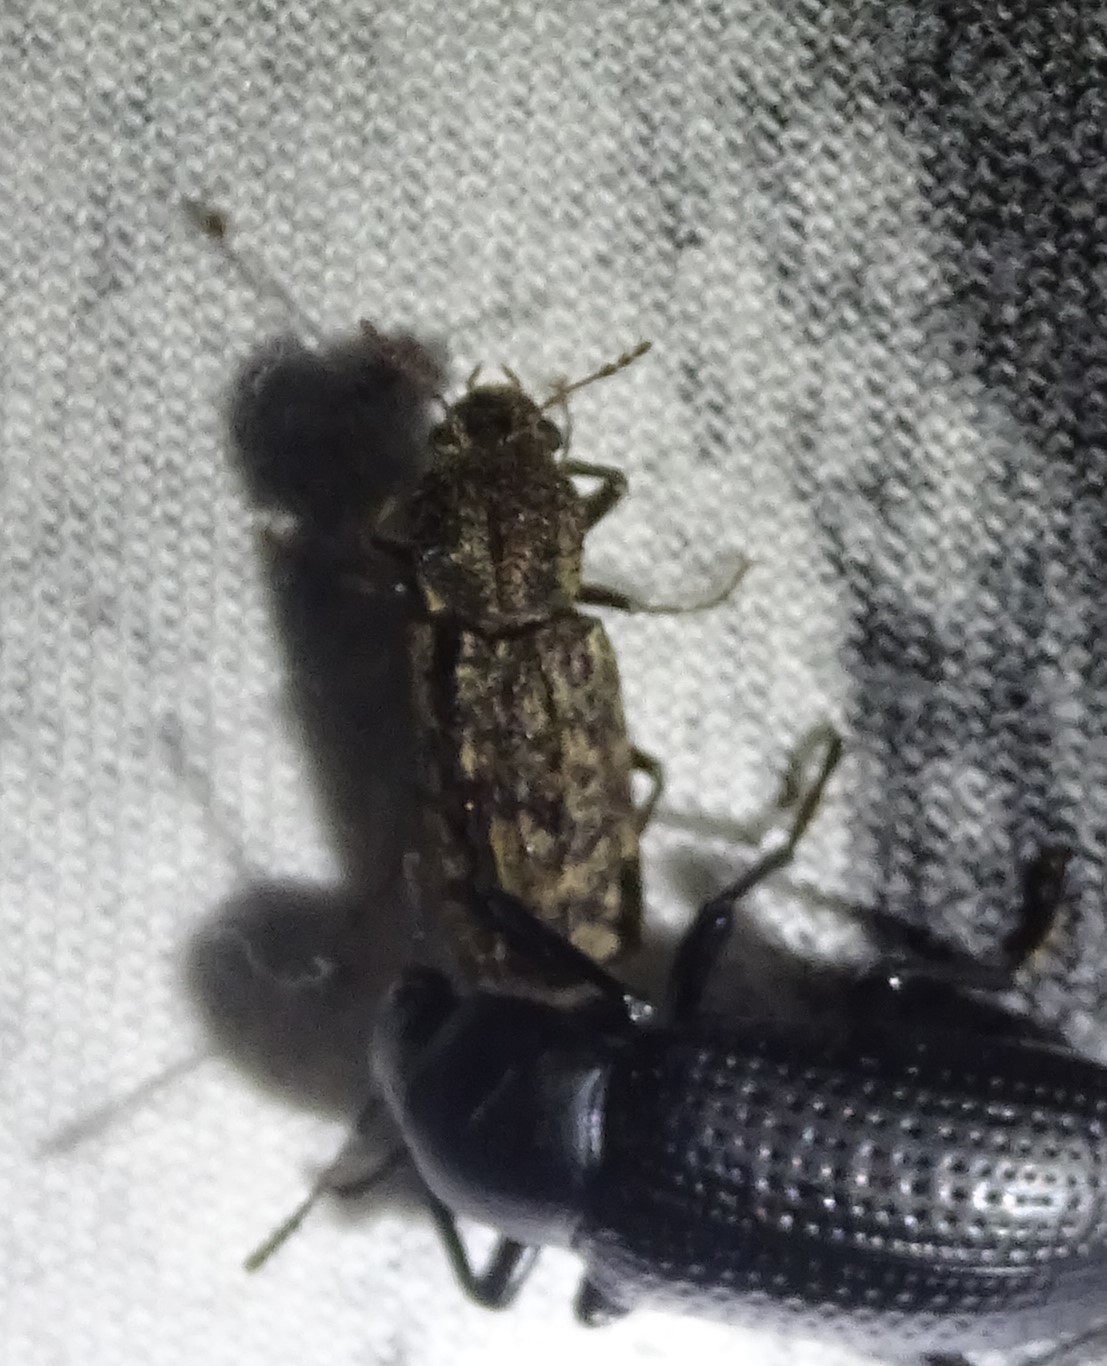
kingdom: Animalia
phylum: Arthropoda
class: Insecta
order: Coleoptera
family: Bostrichidae
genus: Lichenophanes
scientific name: Lichenophanes bicornis
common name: Two-horned powder-post beetle
